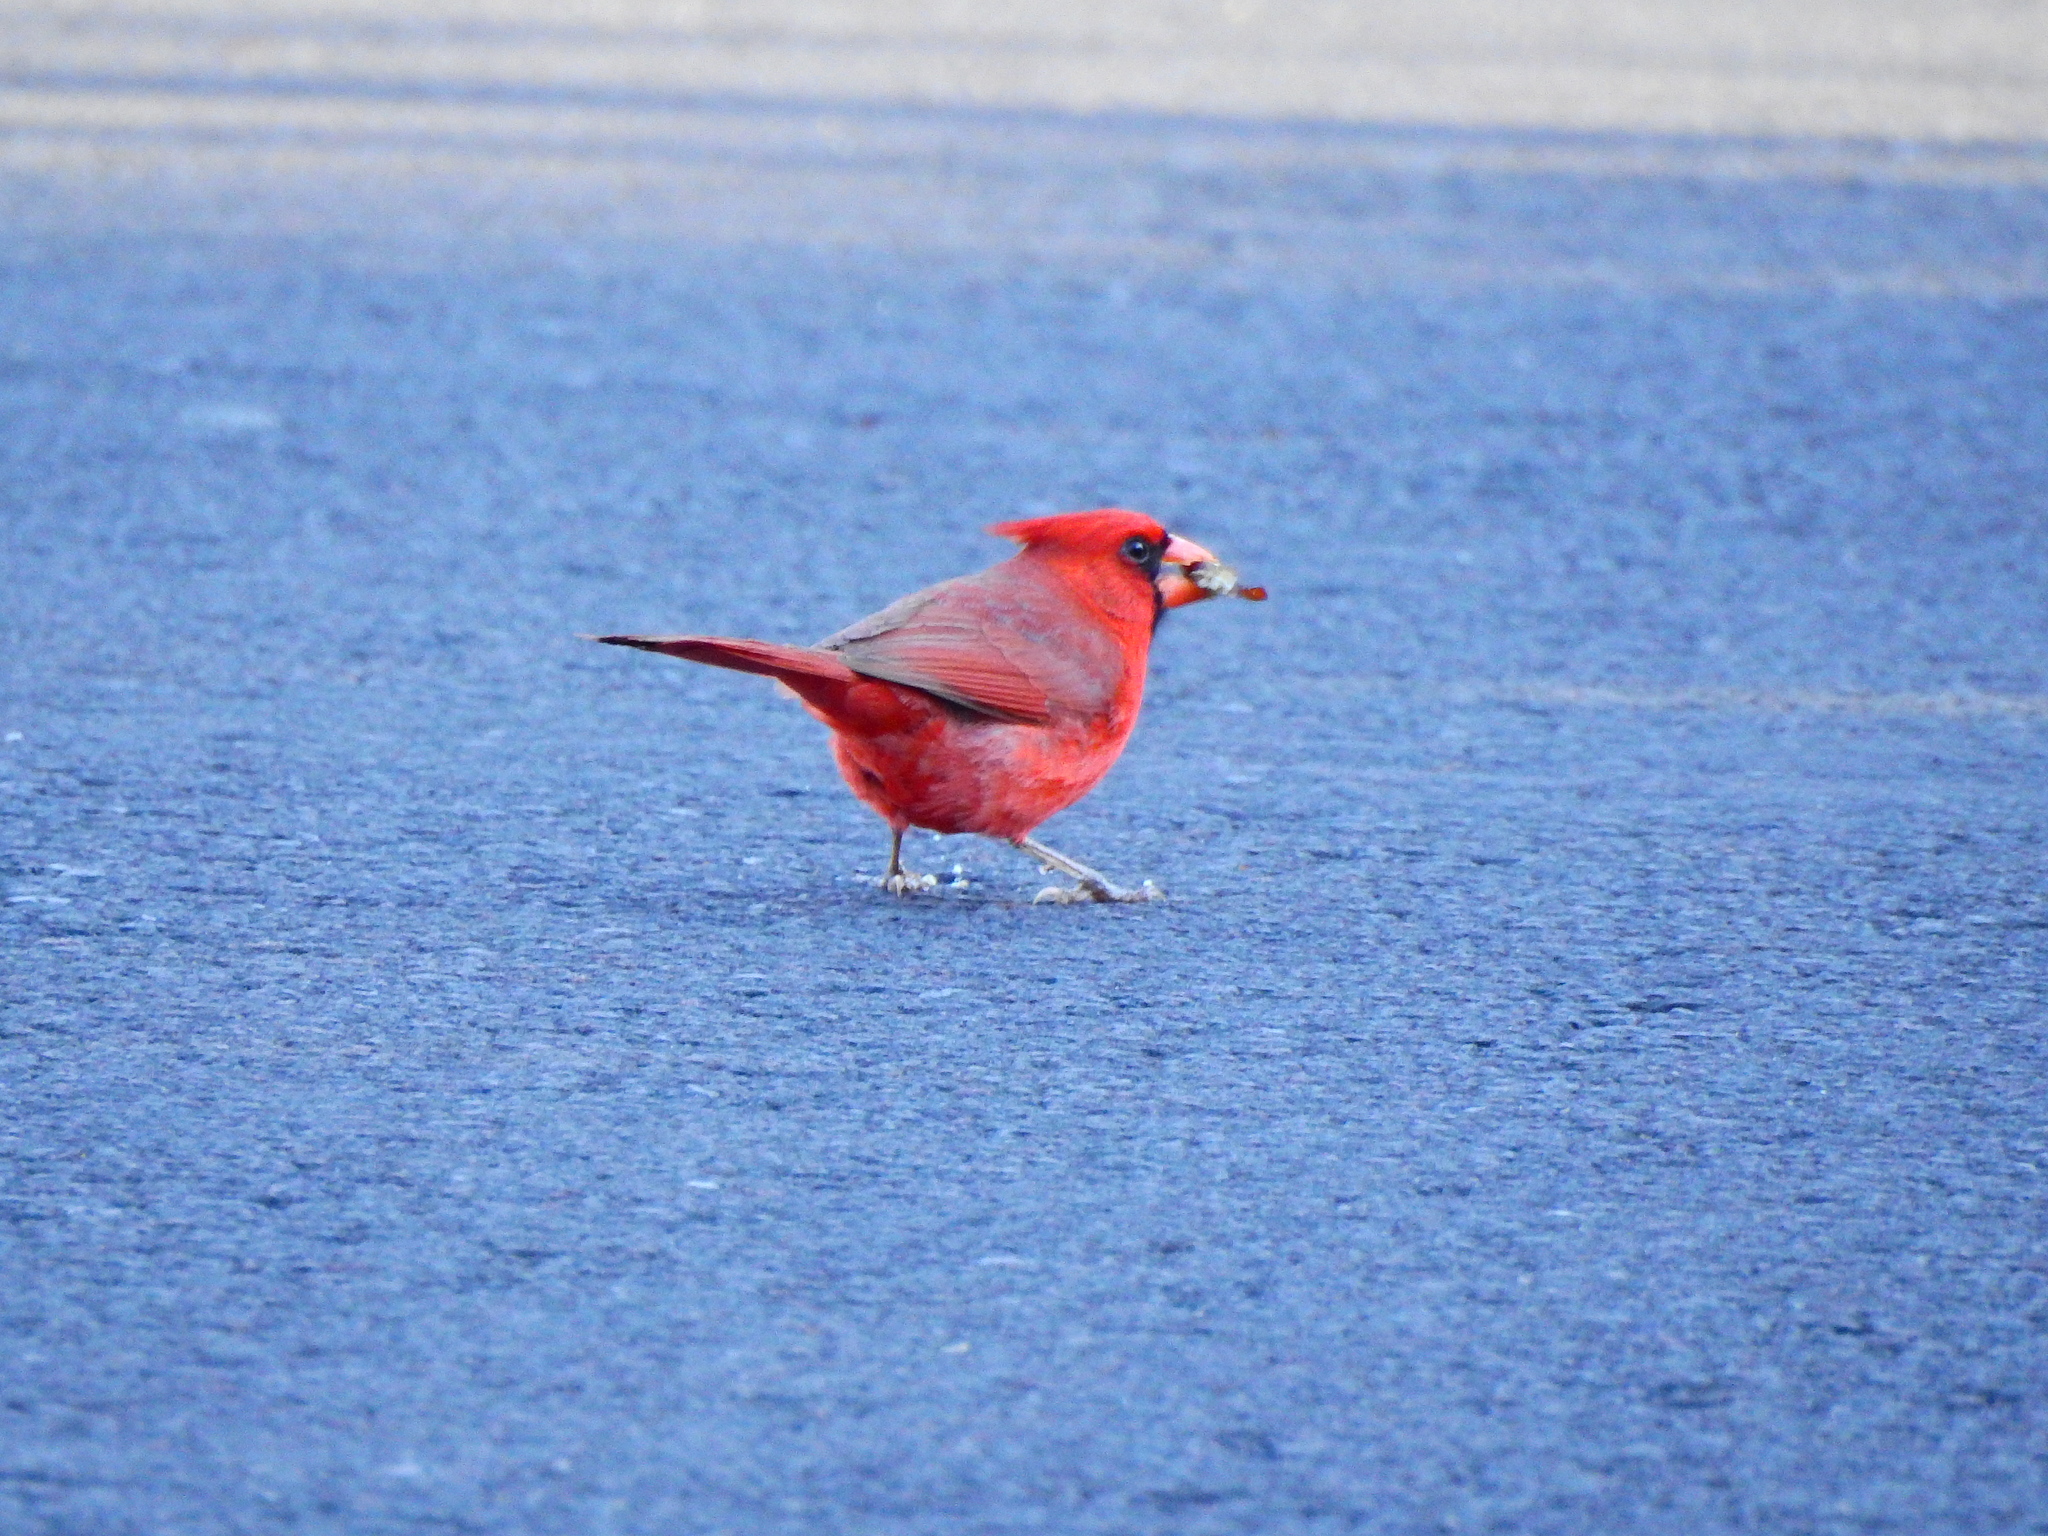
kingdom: Animalia
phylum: Chordata
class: Aves
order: Passeriformes
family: Cardinalidae
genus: Cardinalis
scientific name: Cardinalis cardinalis
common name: Northern cardinal
